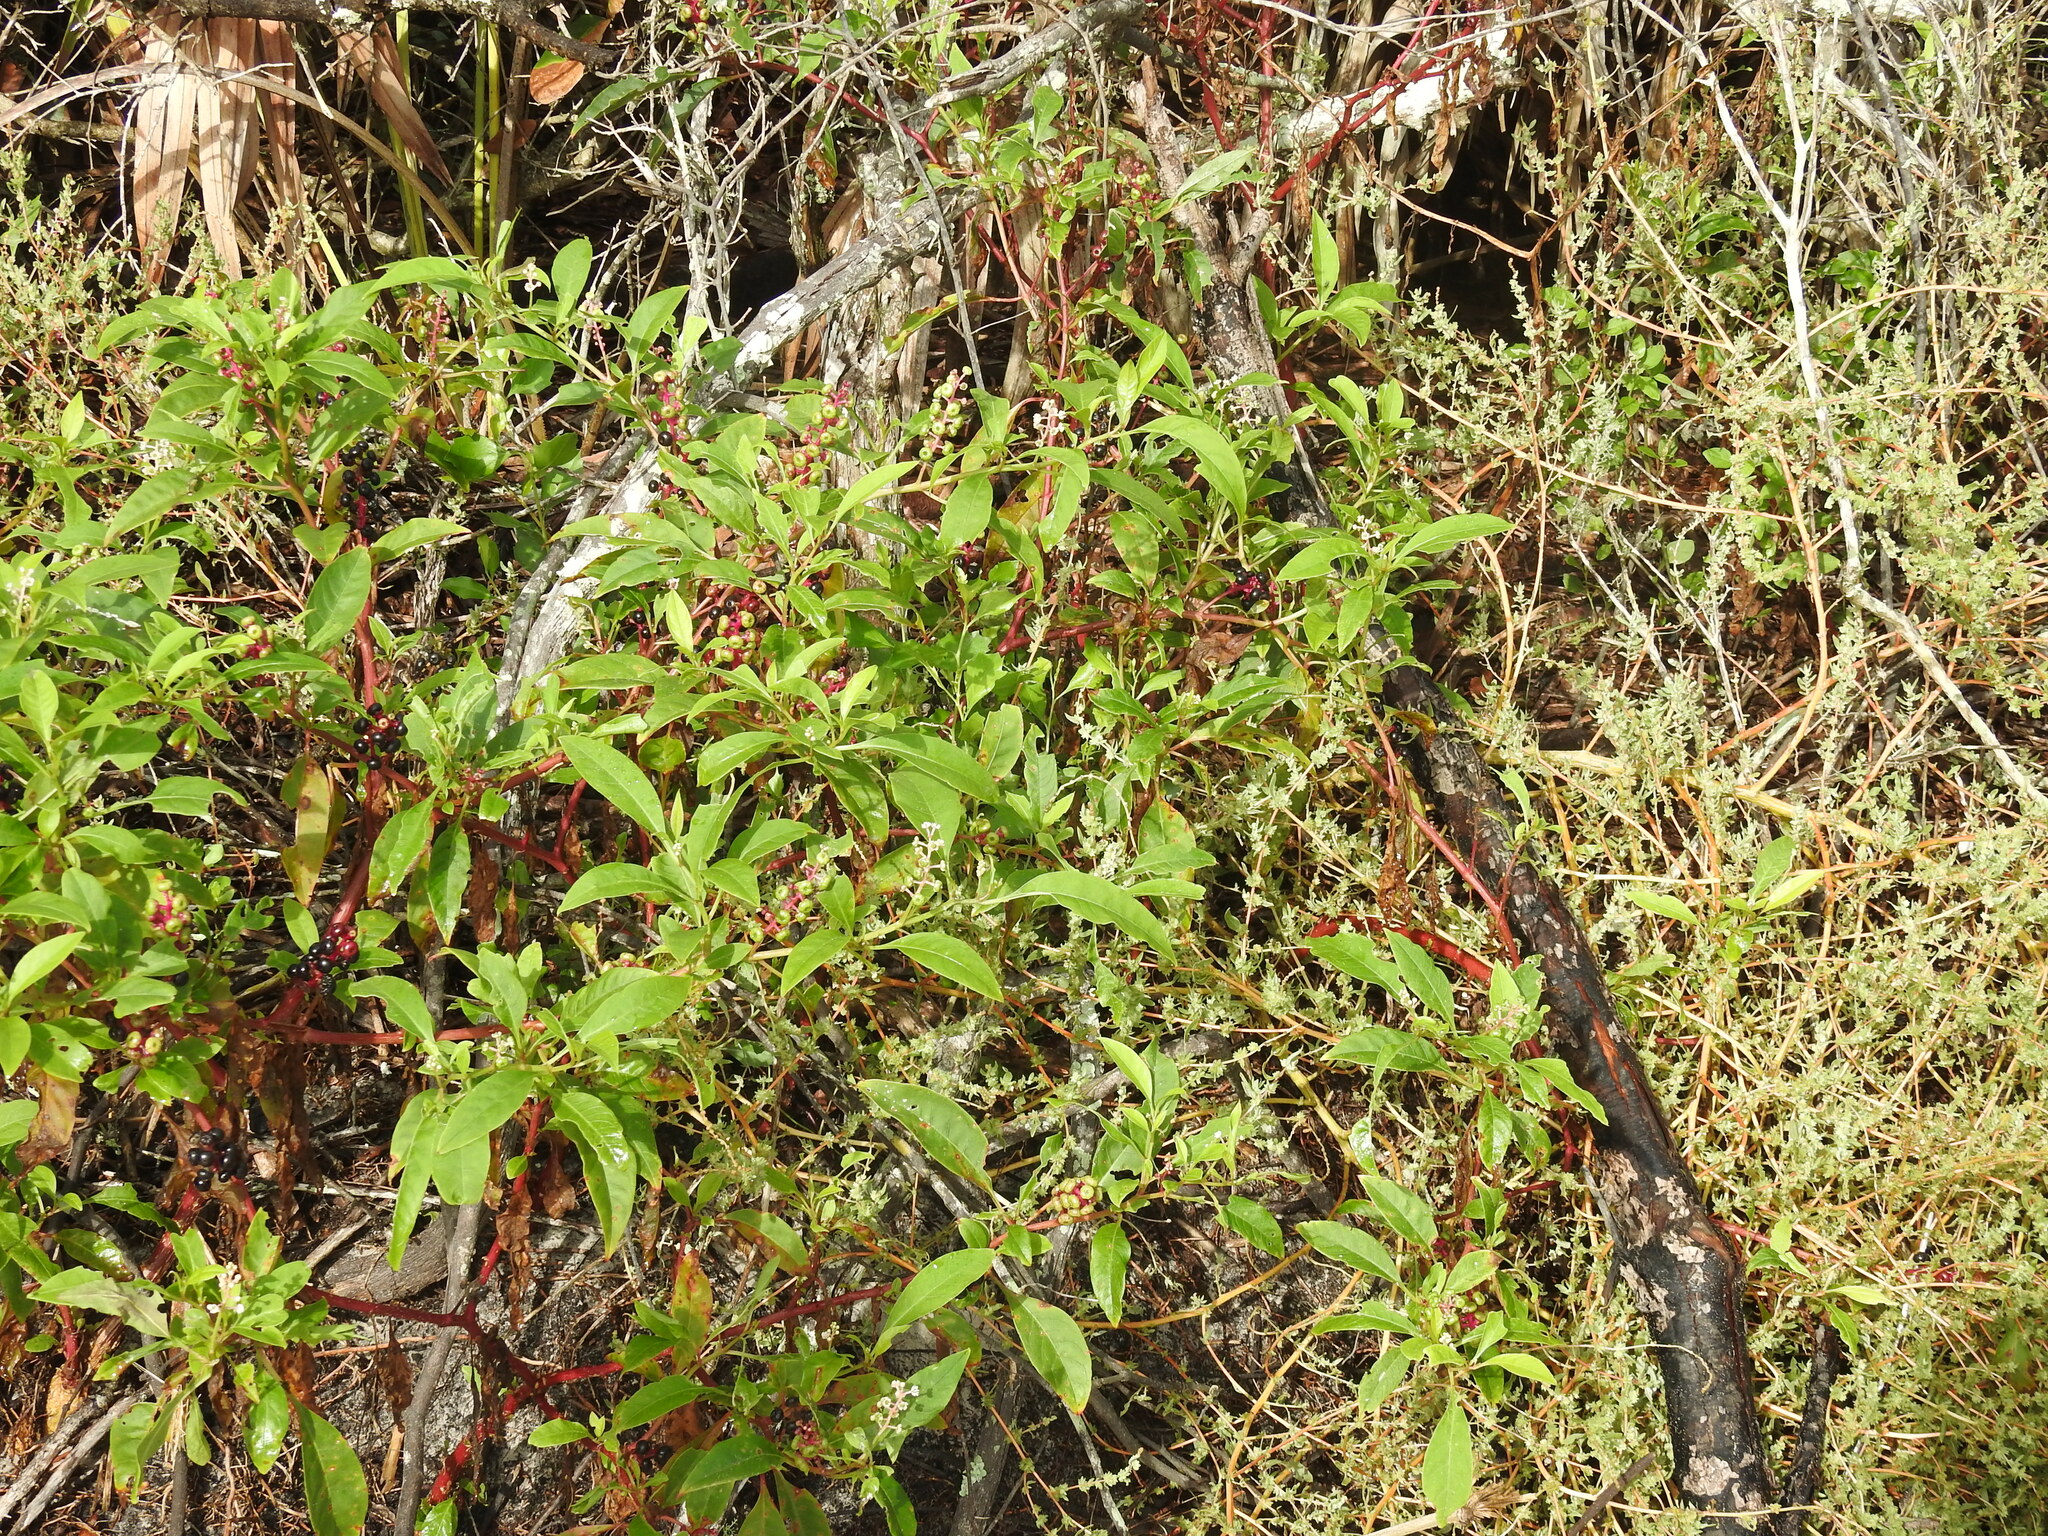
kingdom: Plantae
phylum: Tracheophyta
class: Magnoliopsida
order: Caryophyllales
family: Phytolaccaceae
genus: Phytolacca
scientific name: Phytolacca americana
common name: American pokeweed
